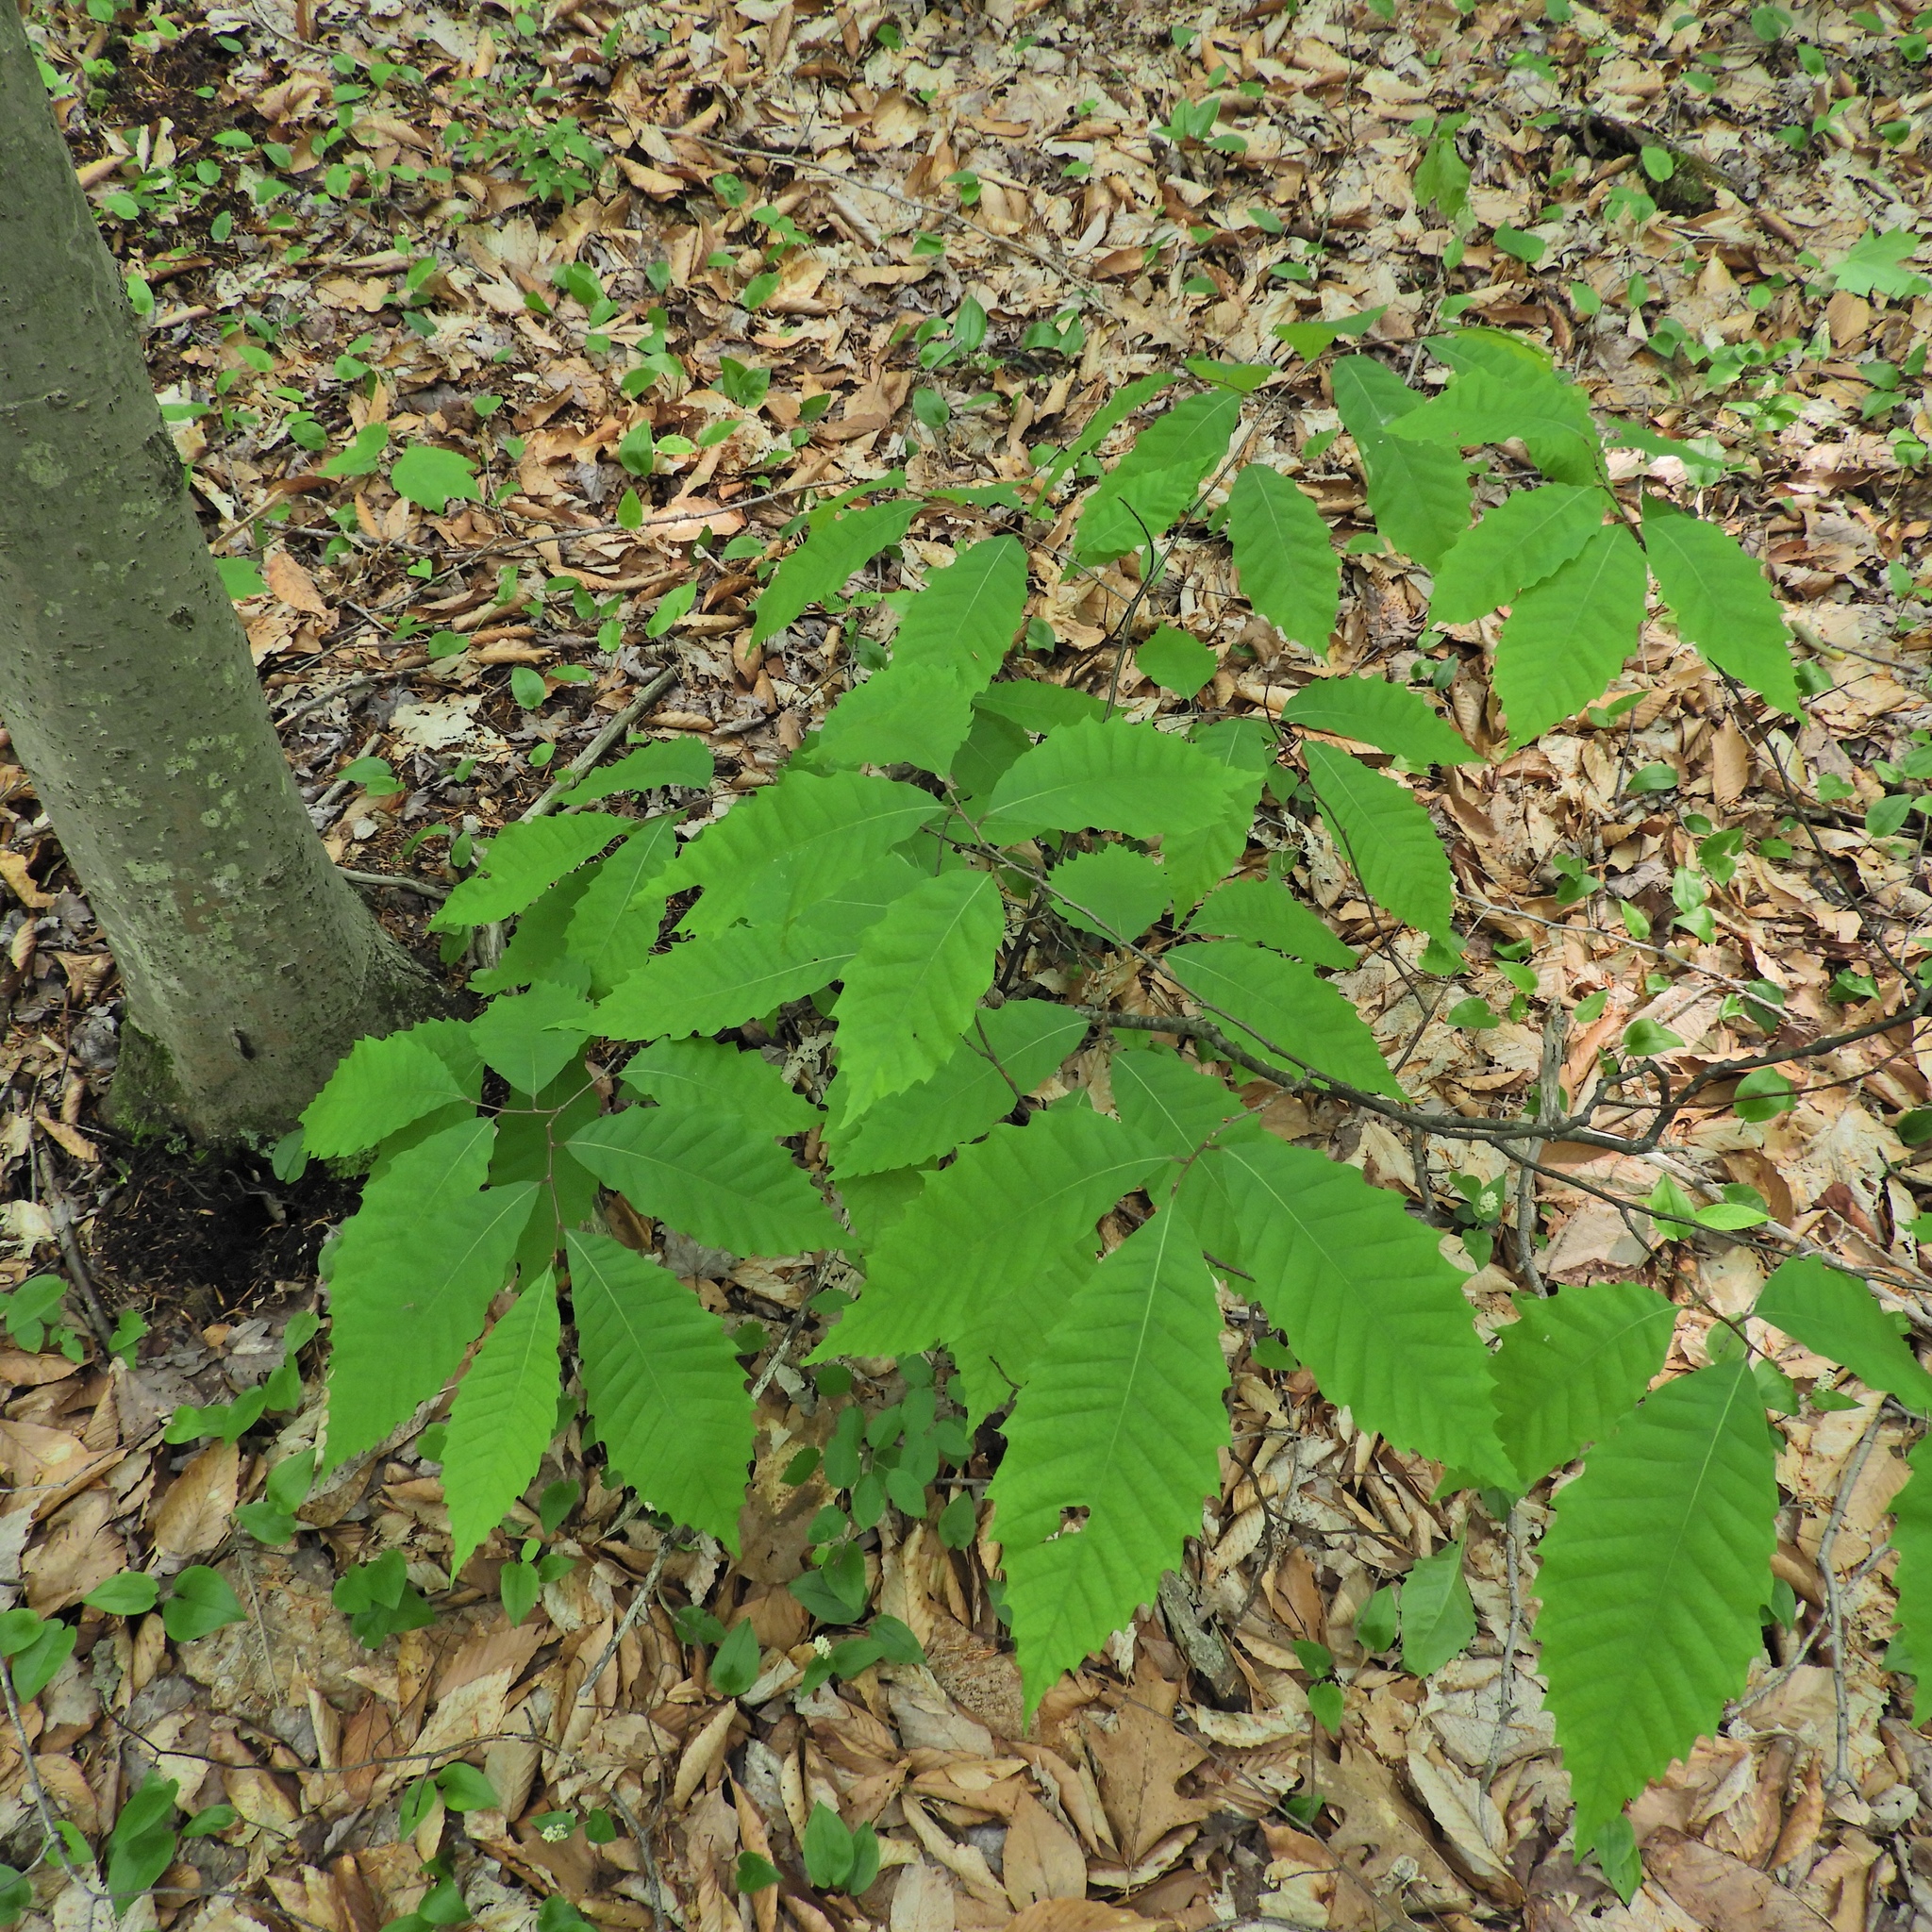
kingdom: Plantae
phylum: Tracheophyta
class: Magnoliopsida
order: Fagales
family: Fagaceae
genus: Castanea
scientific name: Castanea dentata
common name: American chestnut
